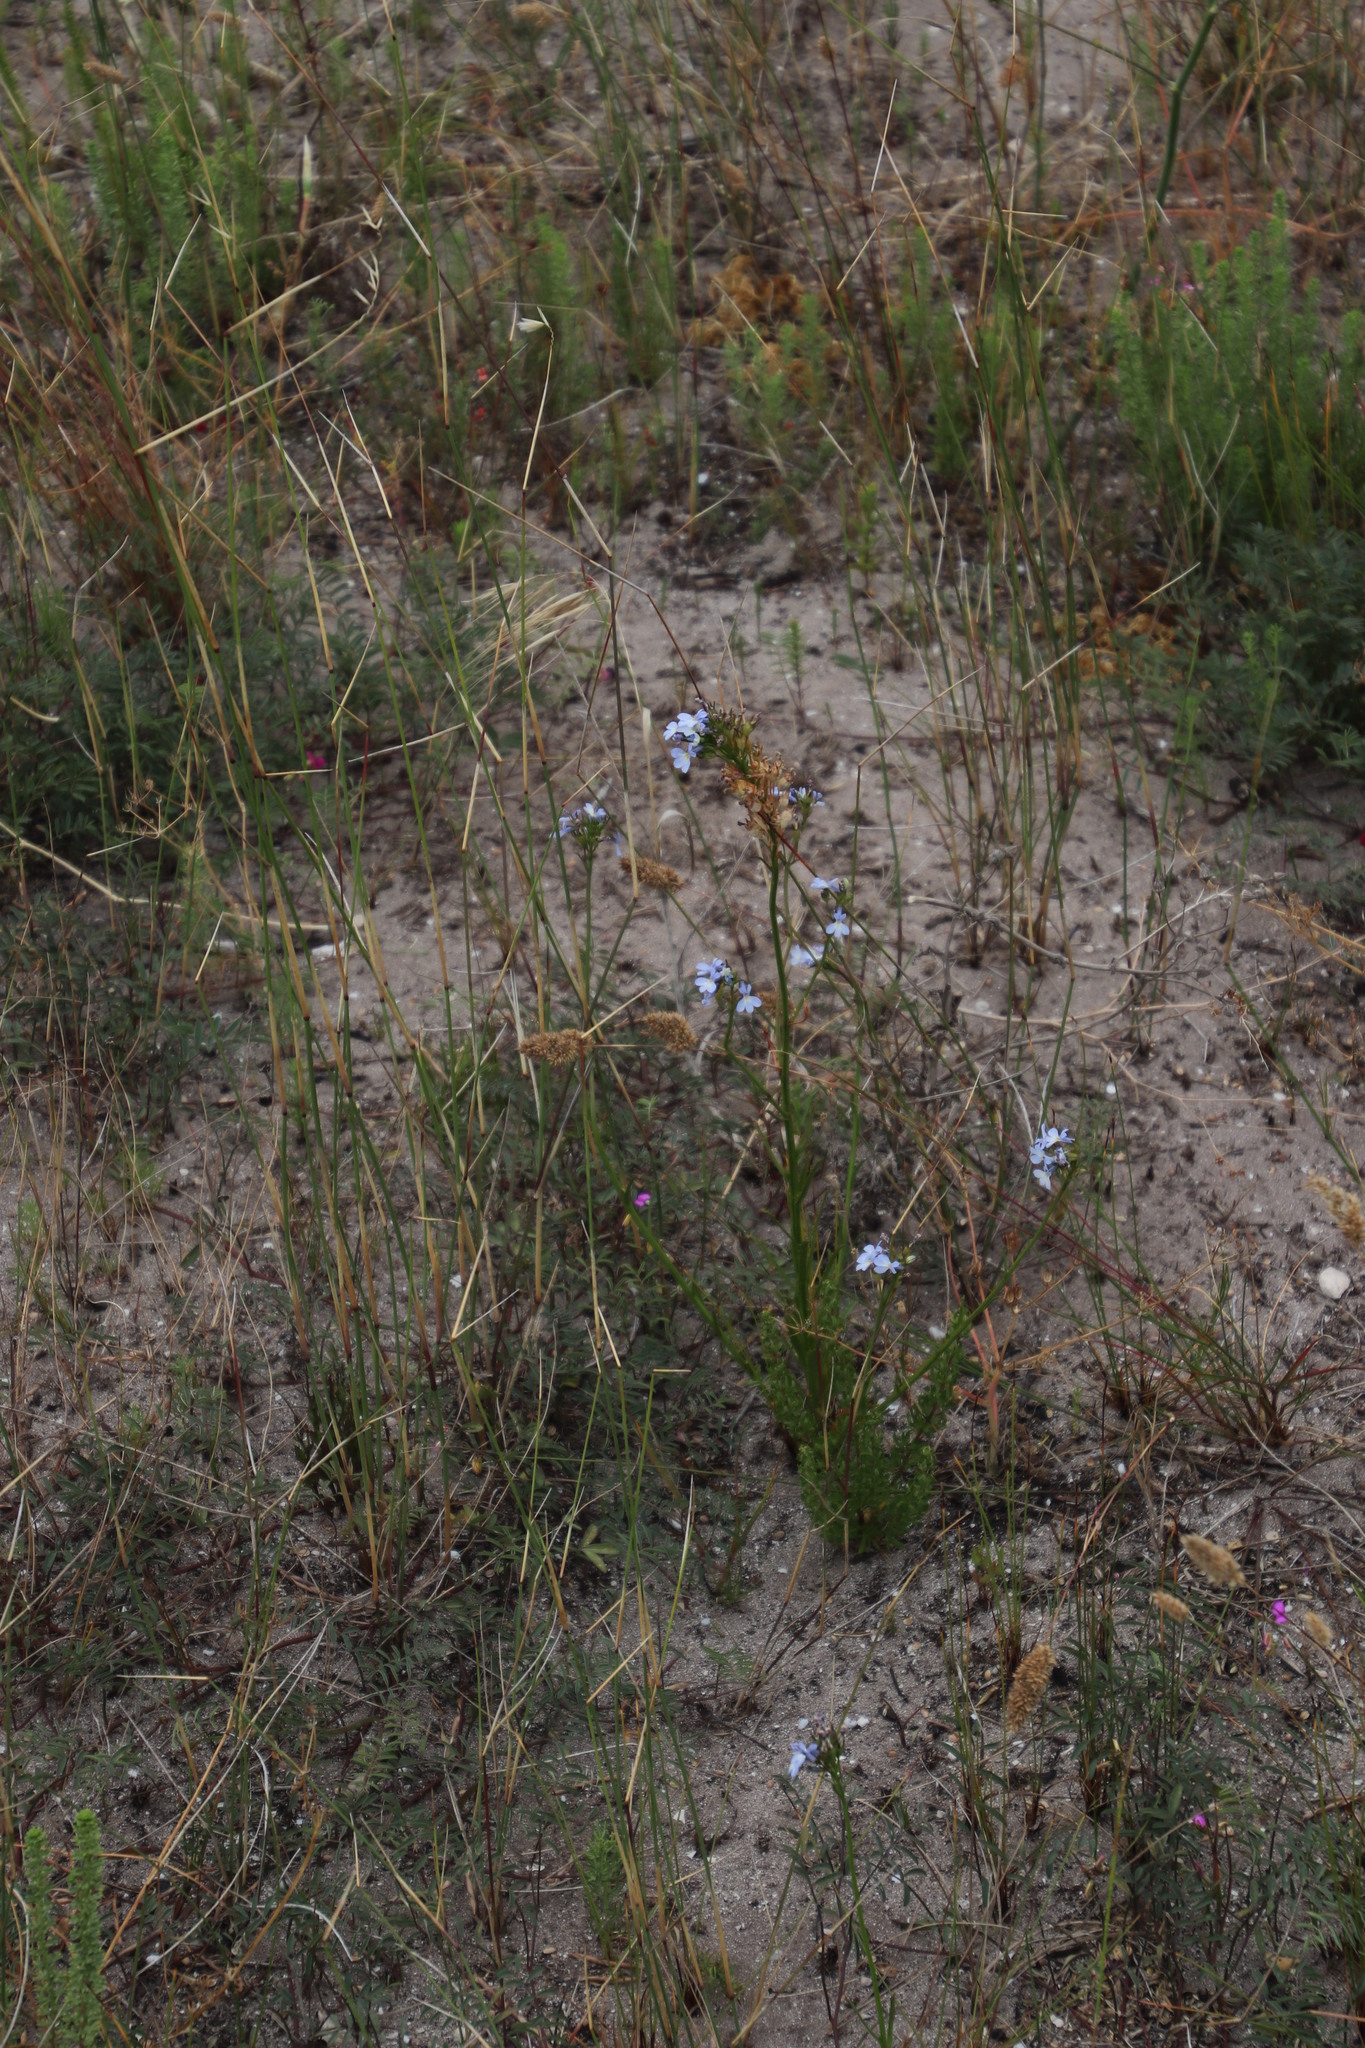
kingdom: Plantae
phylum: Tracheophyta
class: Magnoliopsida
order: Asterales
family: Campanulaceae
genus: Lobelia
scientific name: Lobelia comosa
